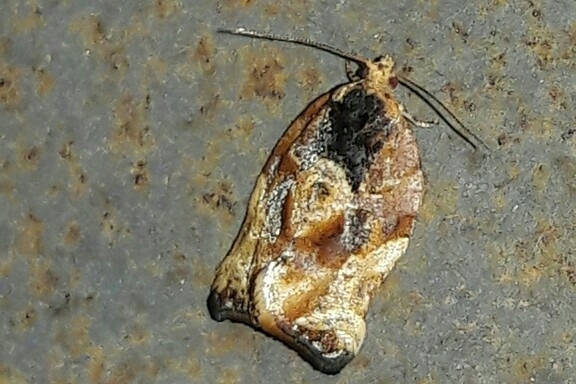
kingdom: Animalia
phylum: Arthropoda
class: Insecta
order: Lepidoptera
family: Tortricidae
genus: Argyrotaenia
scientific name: Argyrotaenia sphaleropa
